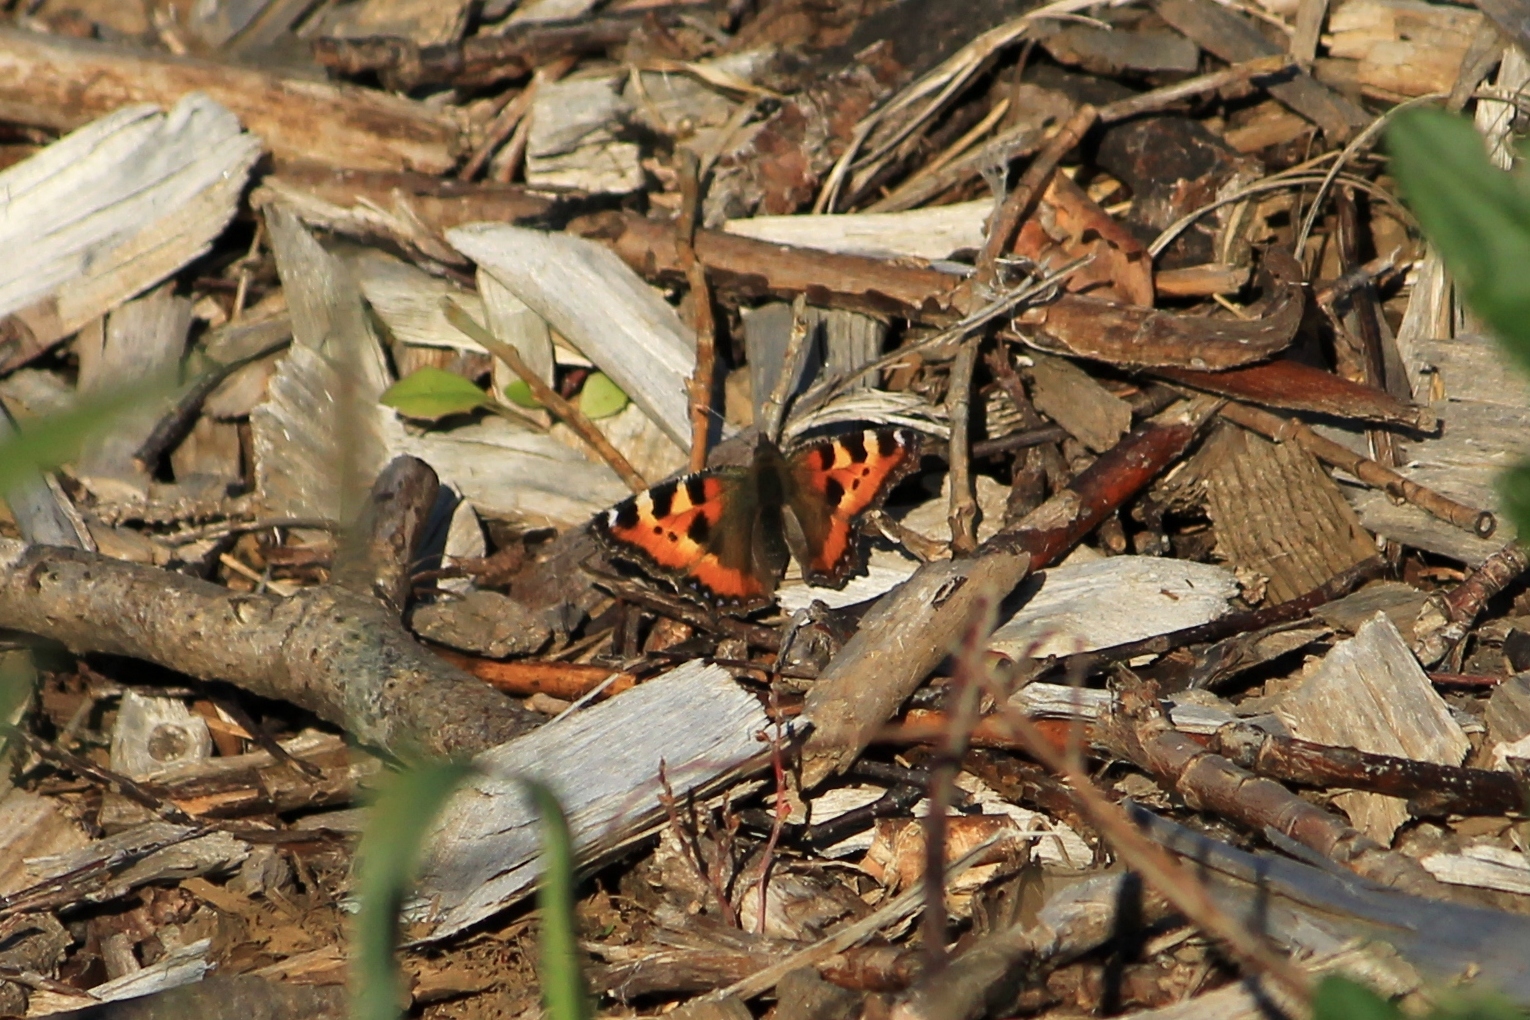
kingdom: Animalia
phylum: Arthropoda
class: Insecta
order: Lepidoptera
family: Nymphalidae
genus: Aglais
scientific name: Aglais urticae
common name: Small tortoiseshell
